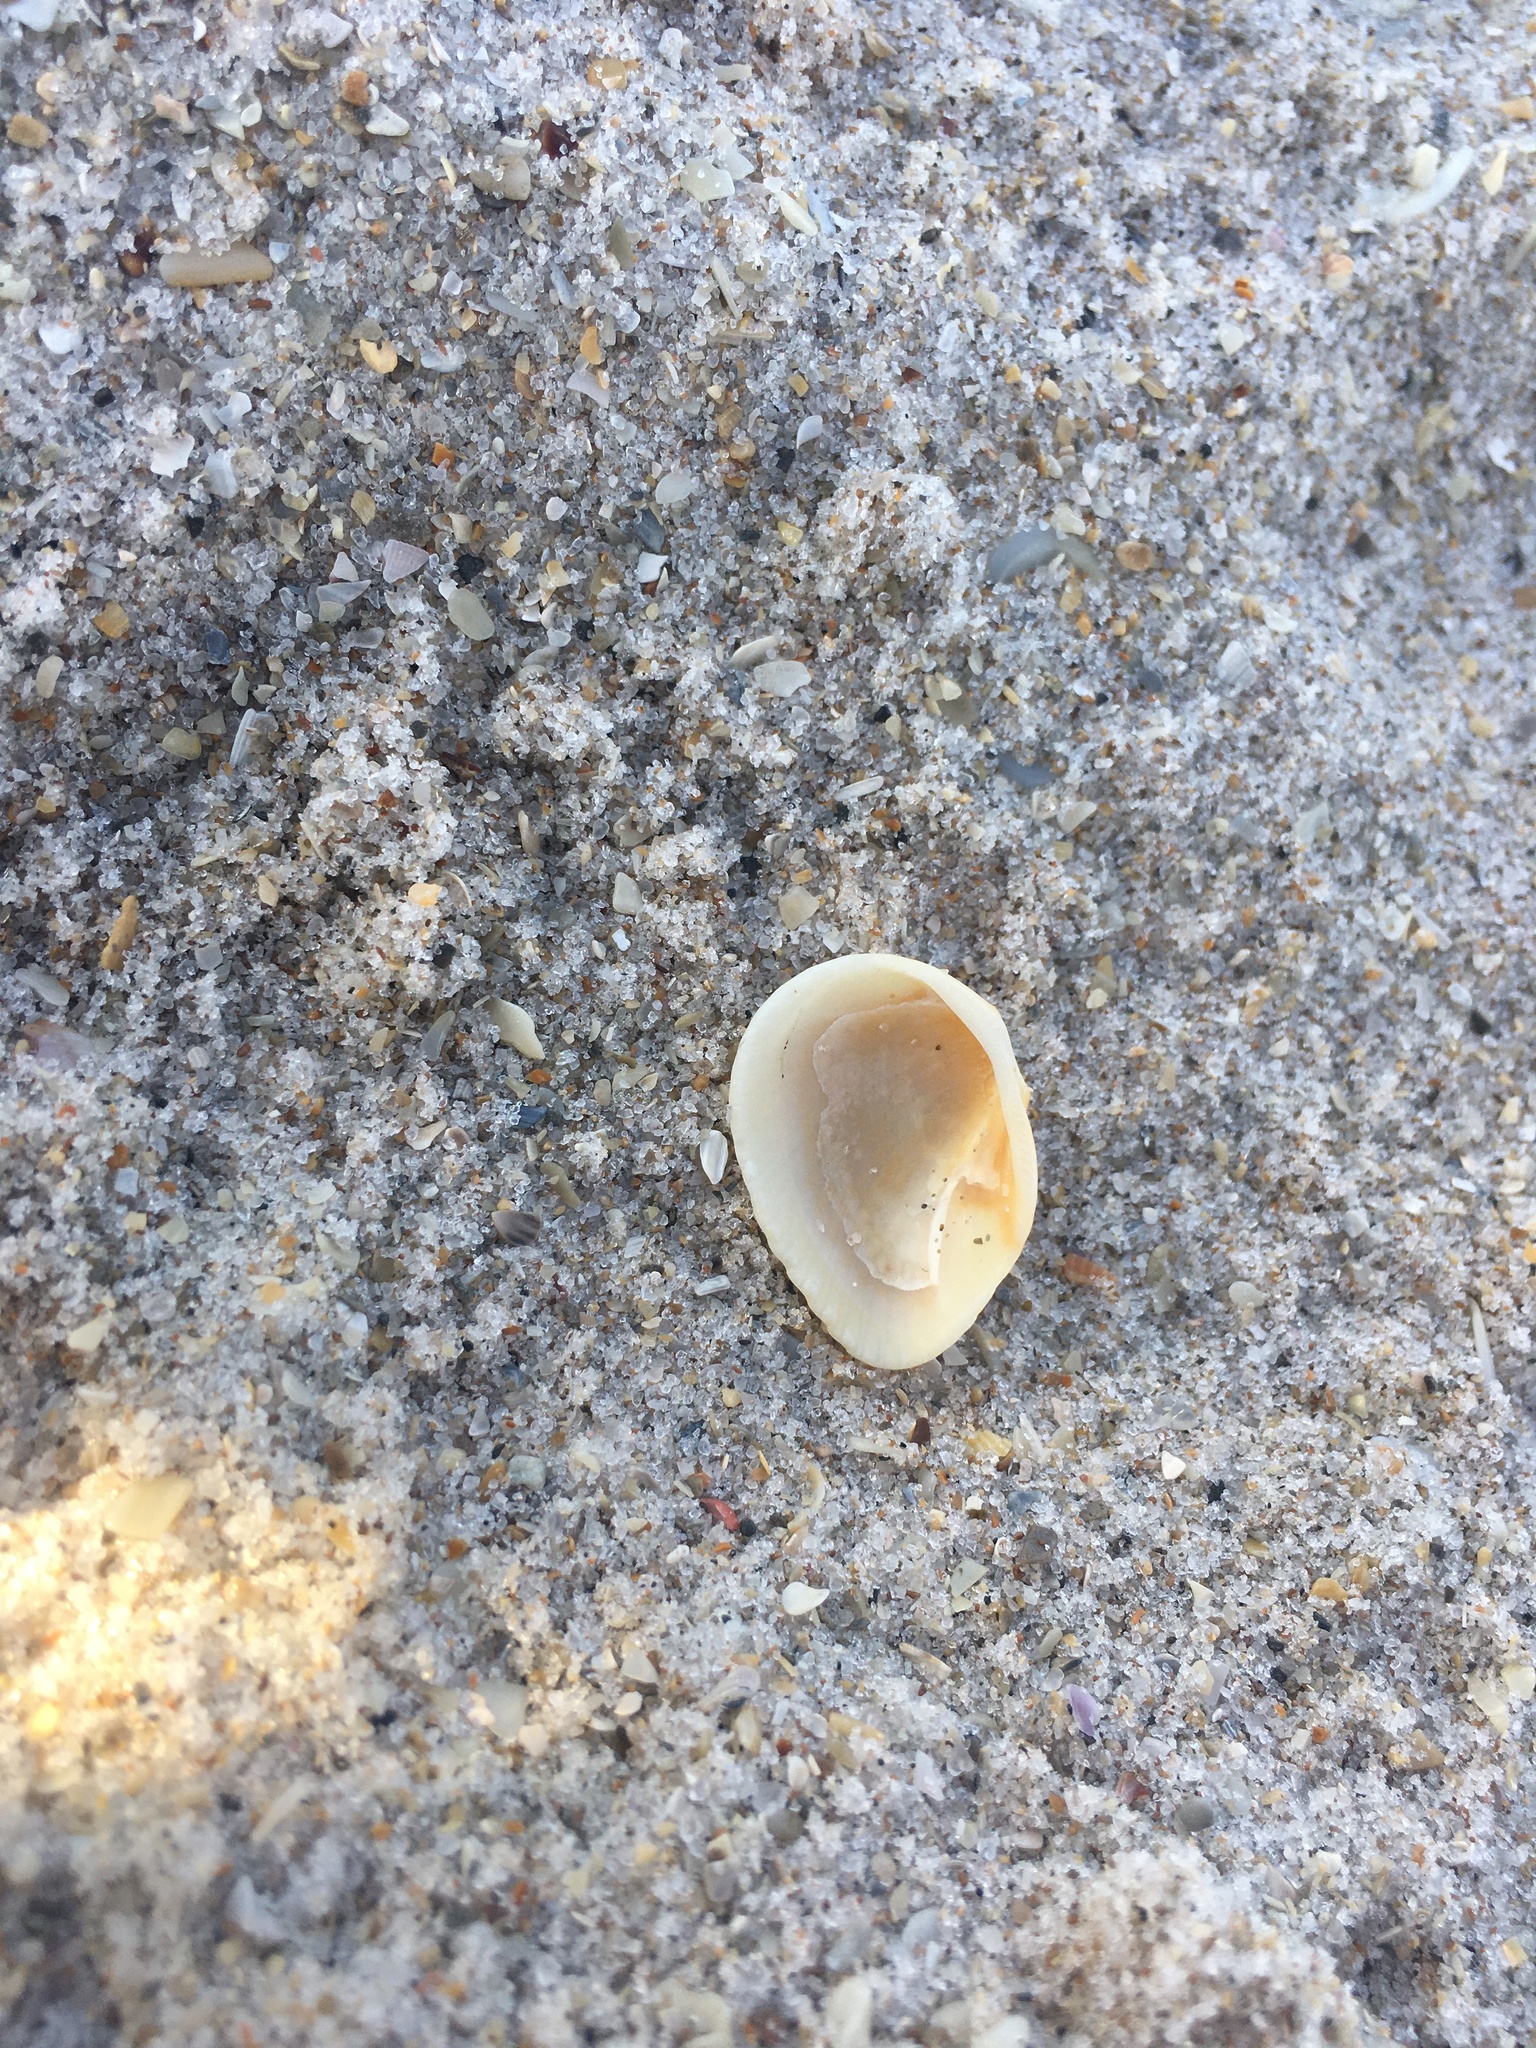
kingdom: Animalia
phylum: Mollusca
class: Bivalvia
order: Arcida
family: Noetiidae
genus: Noetia
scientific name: Noetia ponderosa
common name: Ponderous ark
